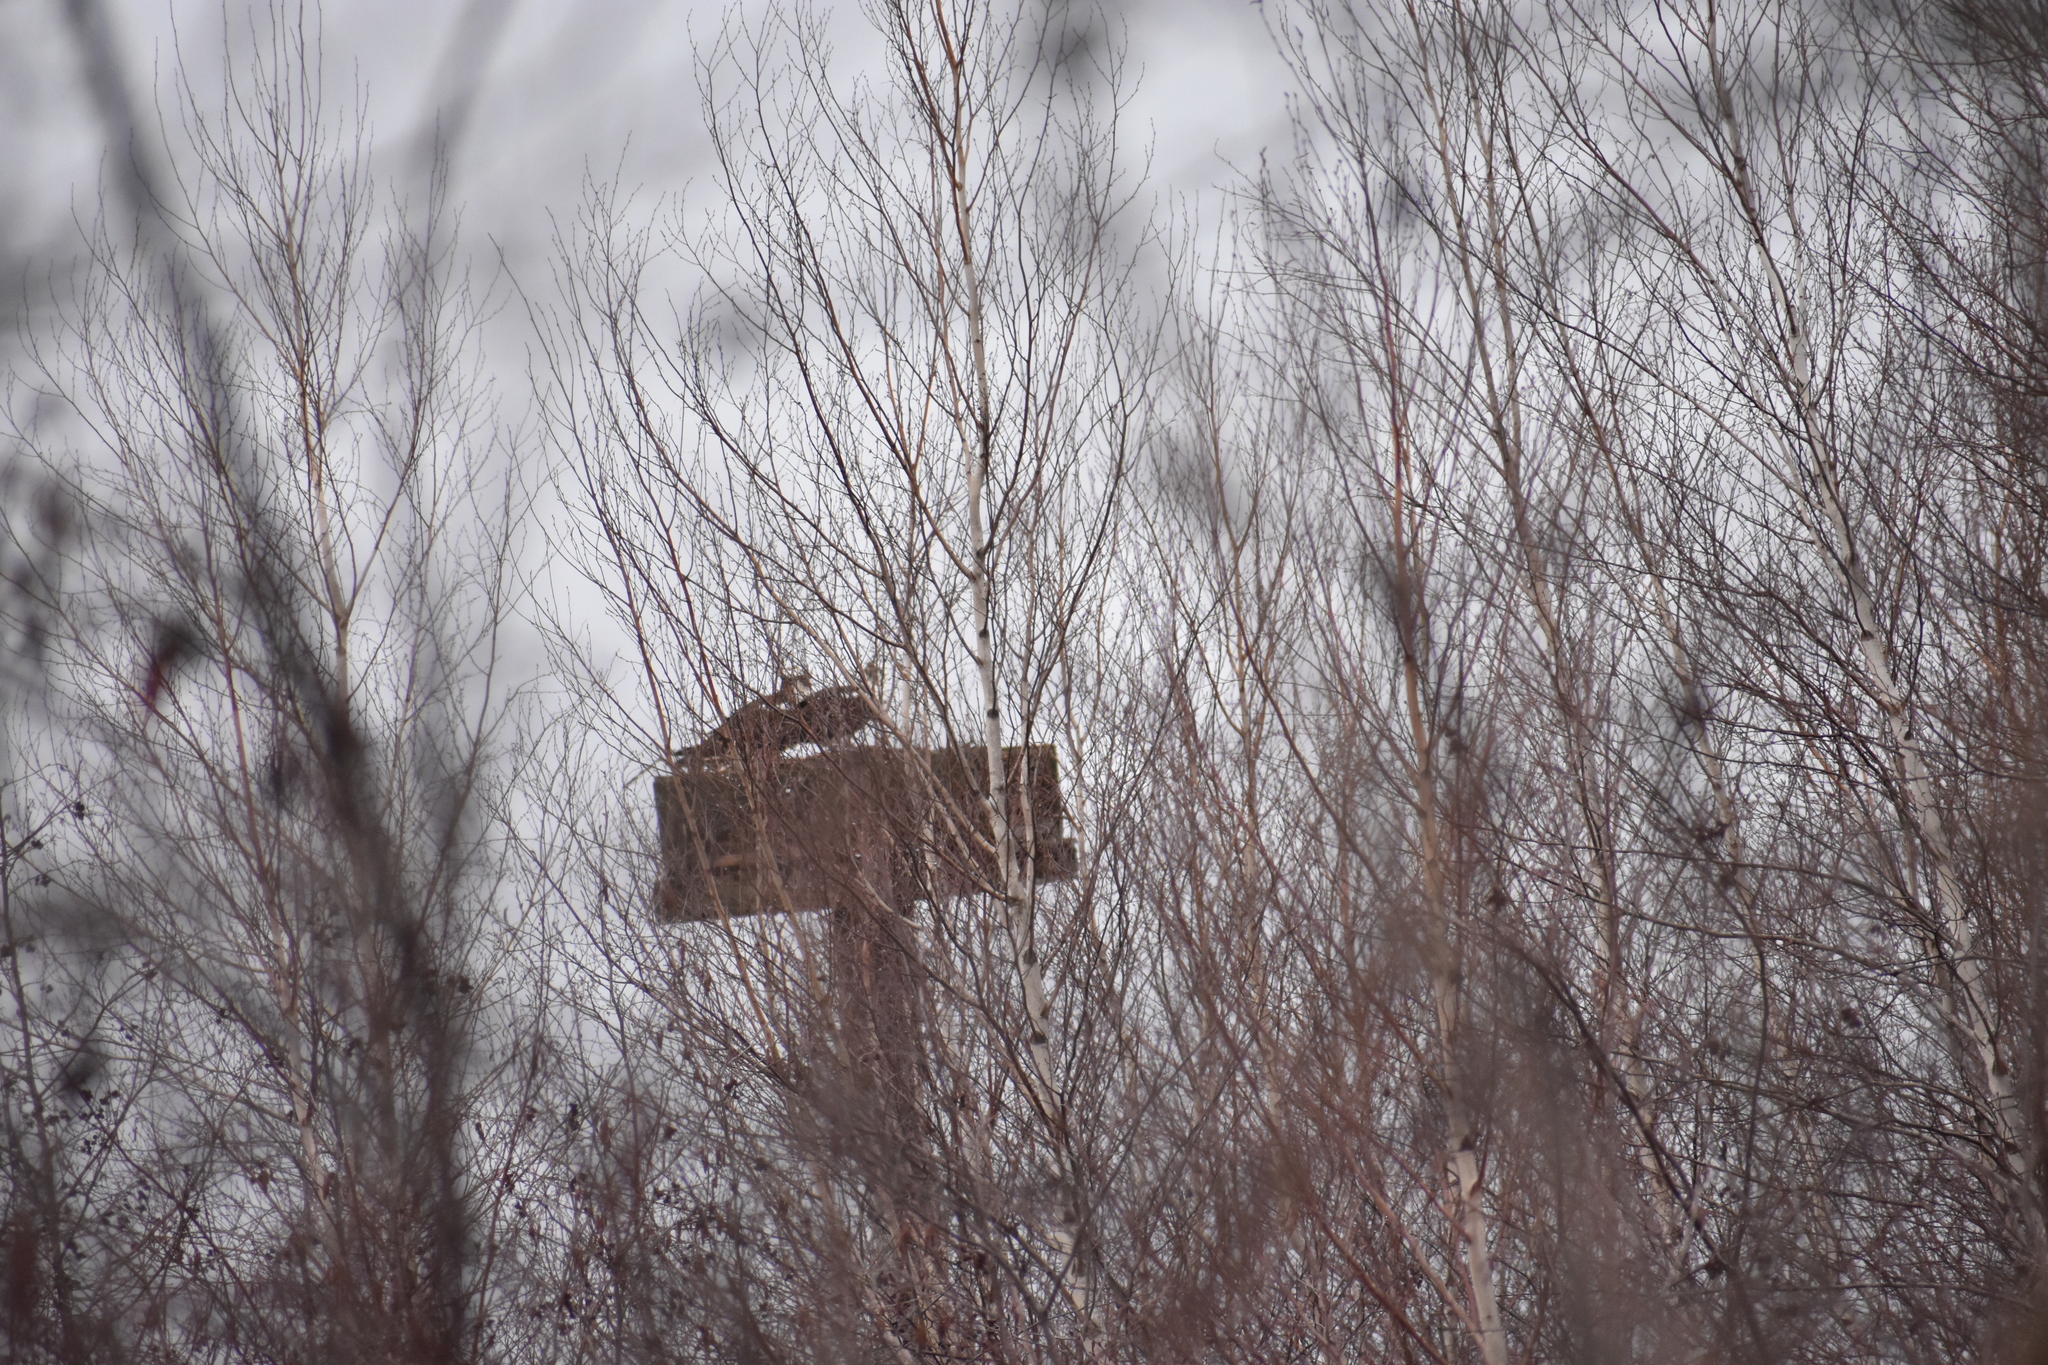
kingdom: Animalia
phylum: Chordata
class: Aves
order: Accipitriformes
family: Pandionidae
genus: Pandion
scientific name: Pandion haliaetus
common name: Osprey
